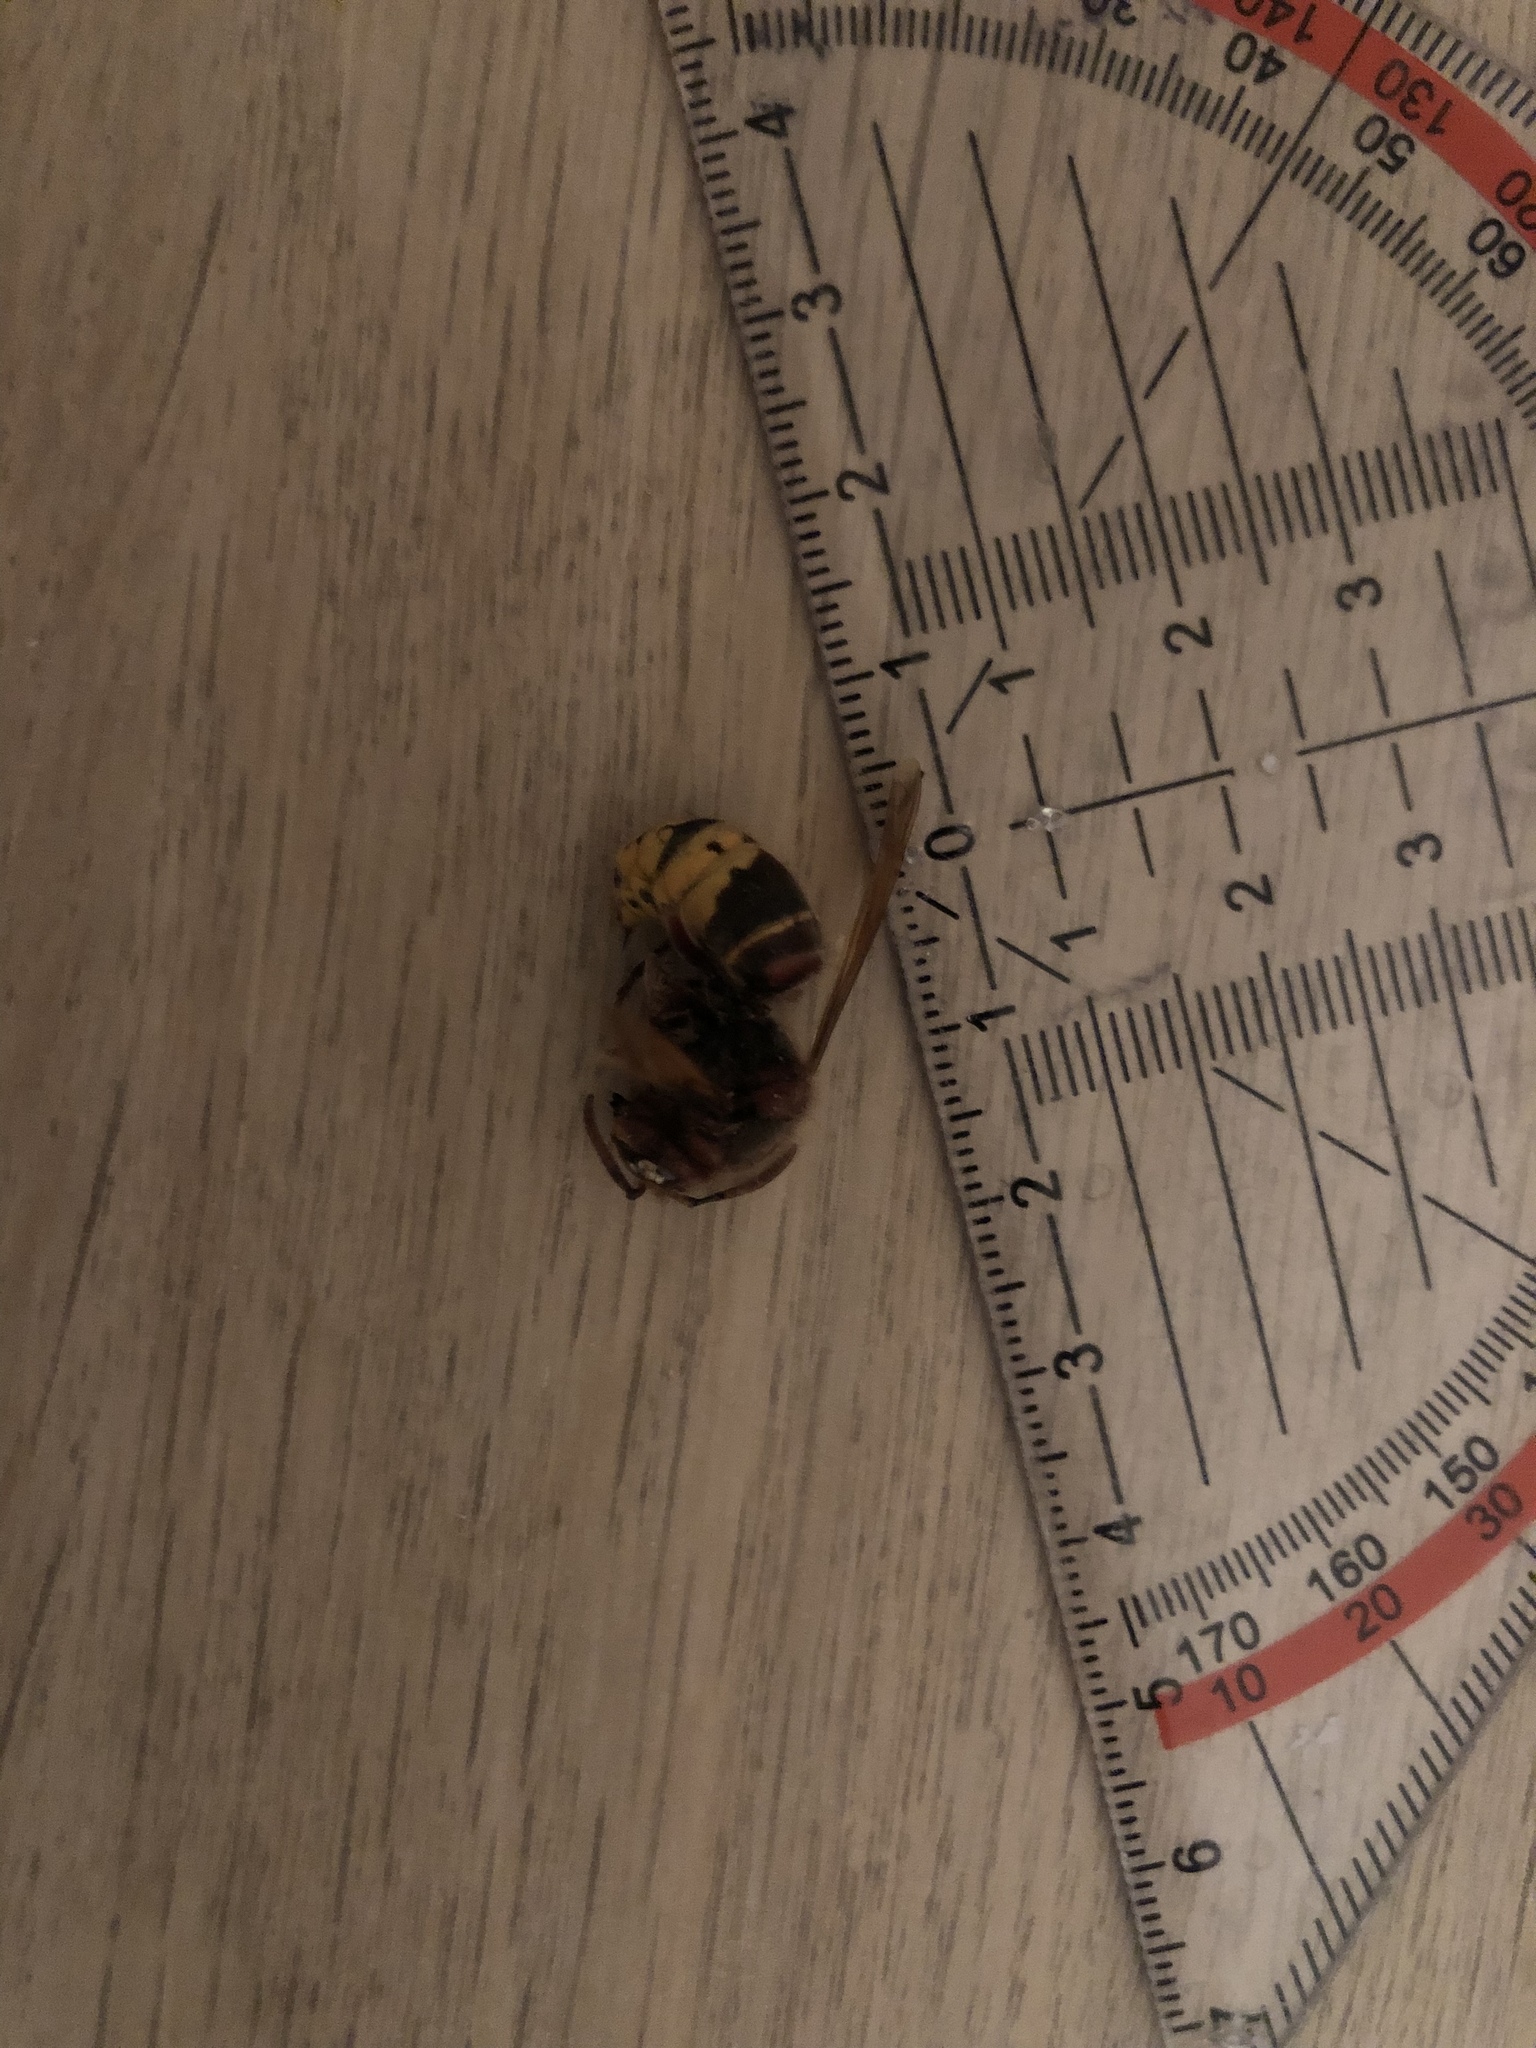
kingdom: Animalia
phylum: Arthropoda
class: Insecta
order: Hymenoptera
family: Vespidae
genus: Vespa
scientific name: Vespa crabro
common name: Hornet
